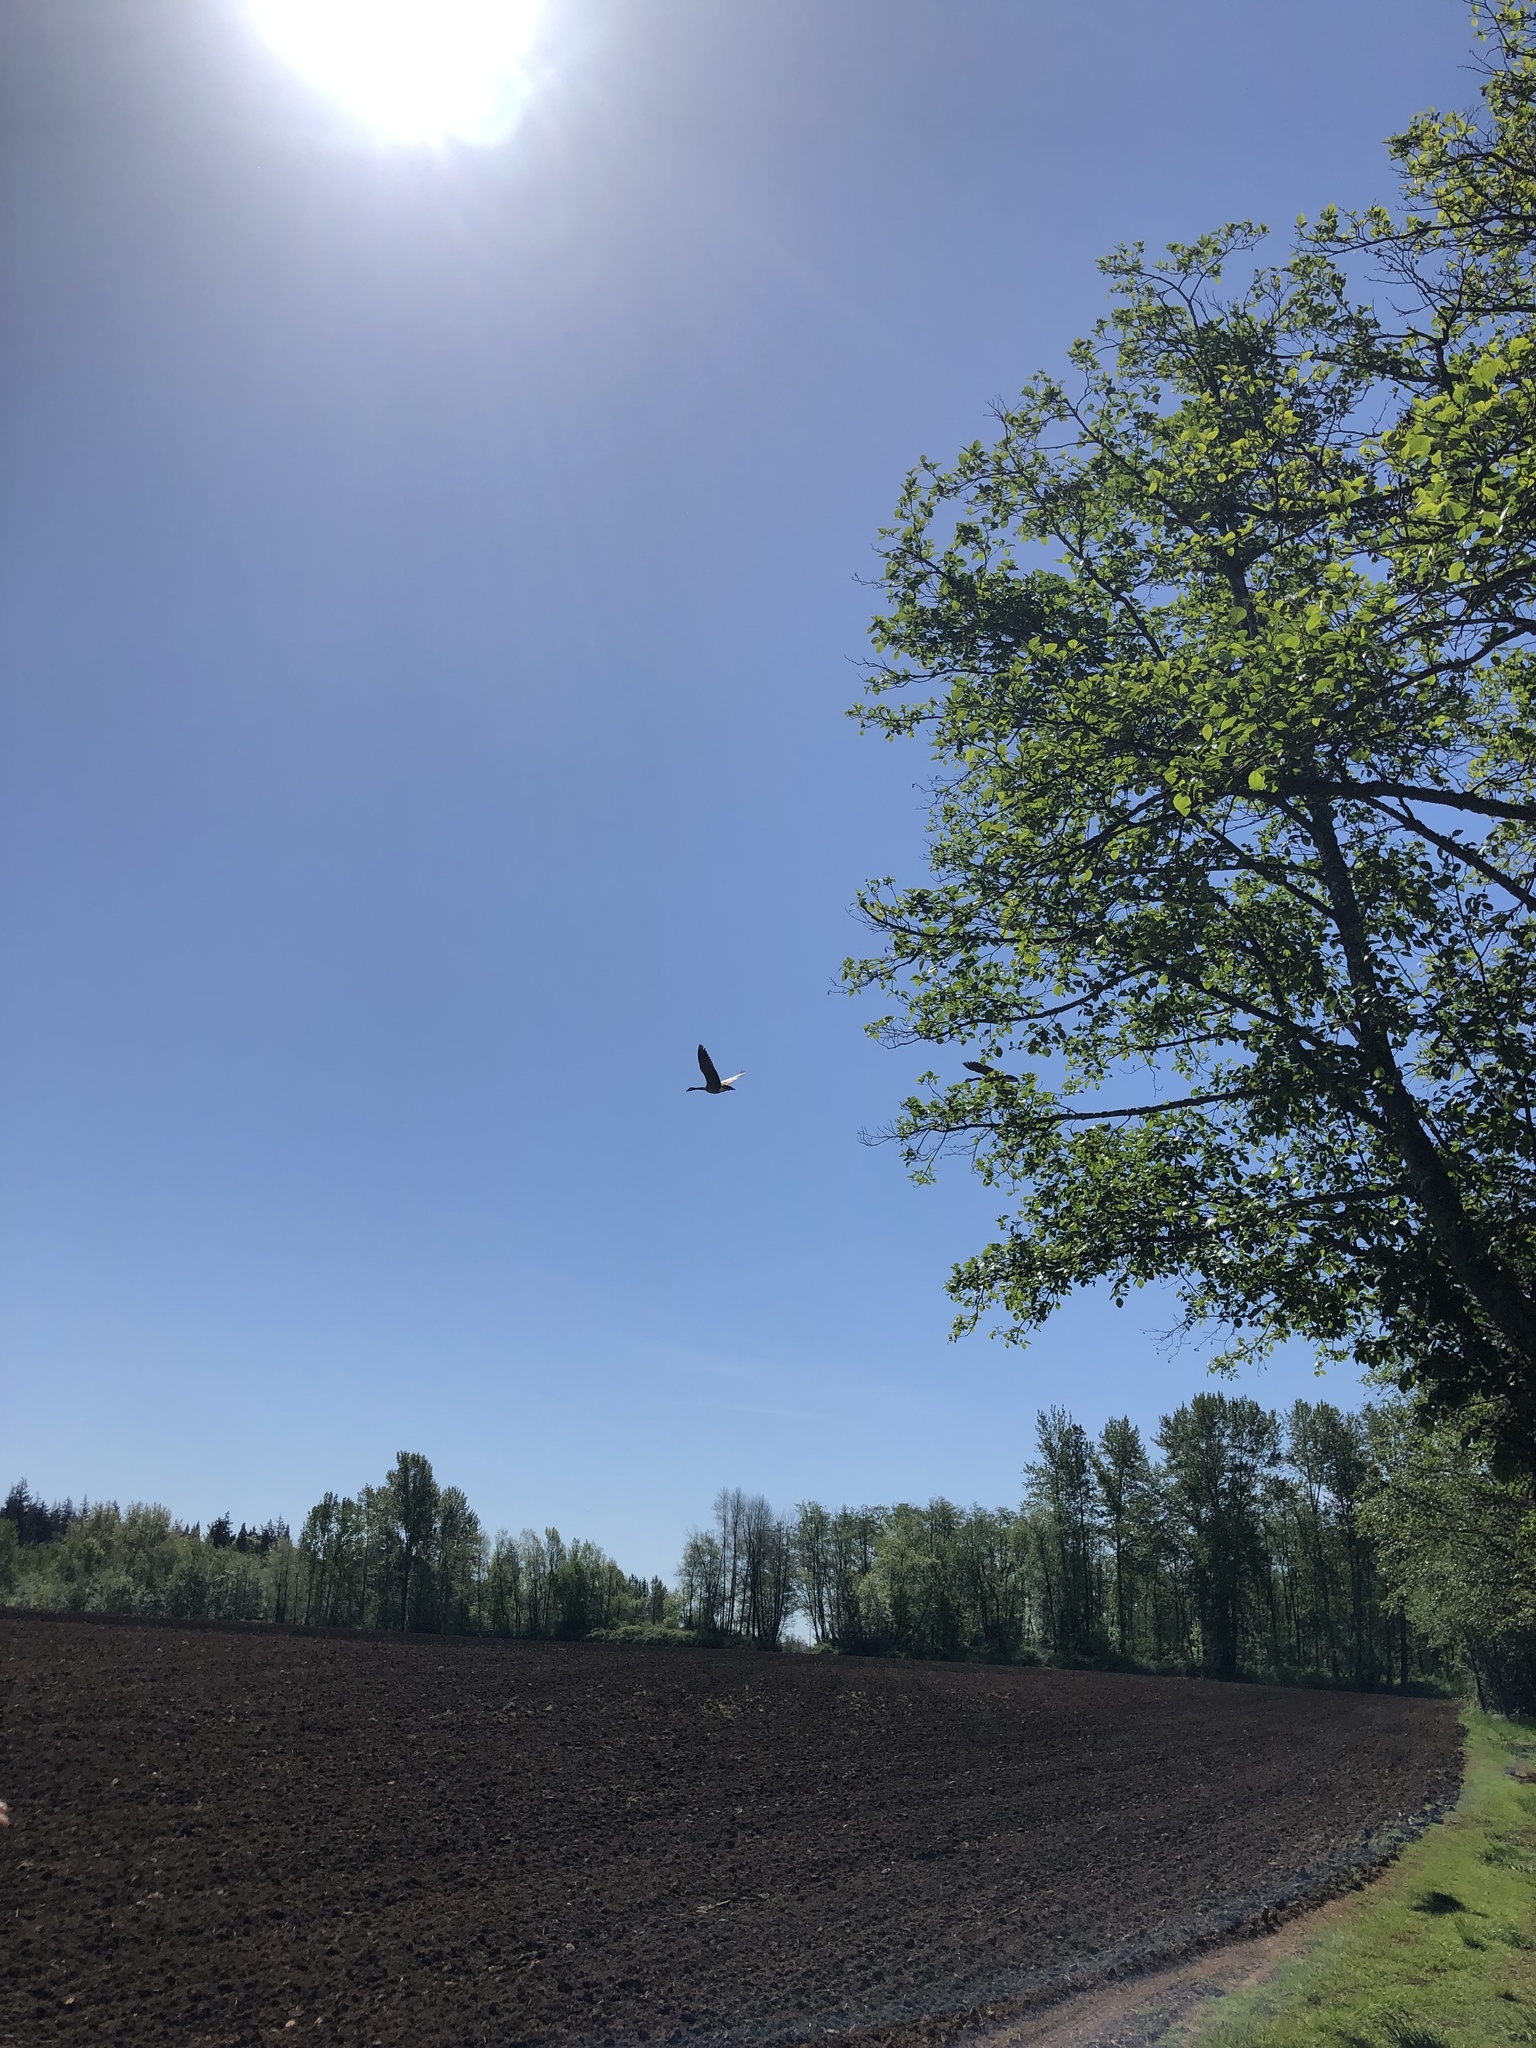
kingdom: Animalia
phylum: Chordata
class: Aves
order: Anseriformes
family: Anatidae
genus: Branta
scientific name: Branta canadensis
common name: Canada goose
